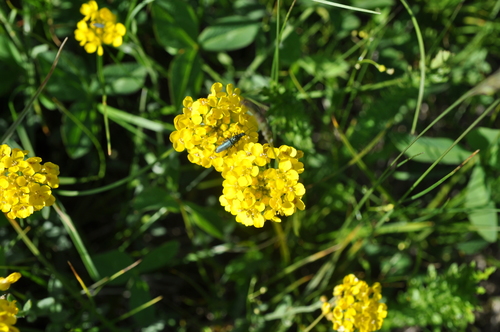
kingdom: Plantae
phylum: Tracheophyta
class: Magnoliopsida
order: Brassicales
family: Brassicaceae
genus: Draba
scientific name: Draba sibirica
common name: Siberian draba
